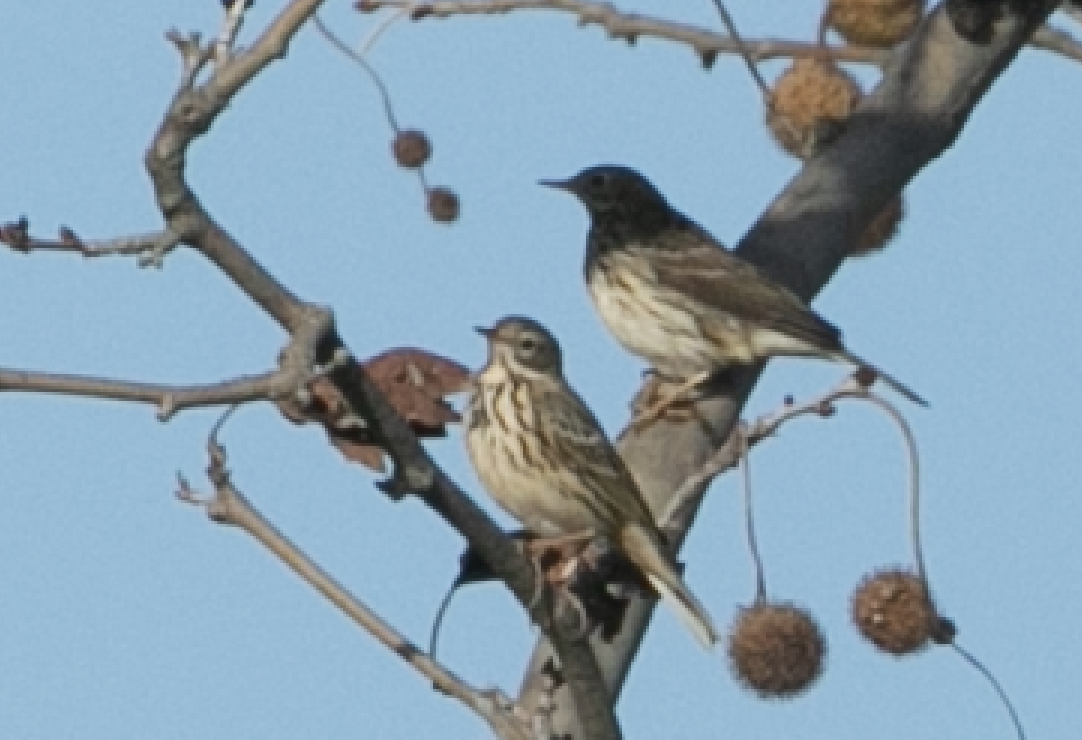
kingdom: Animalia
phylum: Chordata
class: Aves
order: Passeriformes
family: Motacillidae
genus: Anthus
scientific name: Anthus pratensis
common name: Meadow pipit
